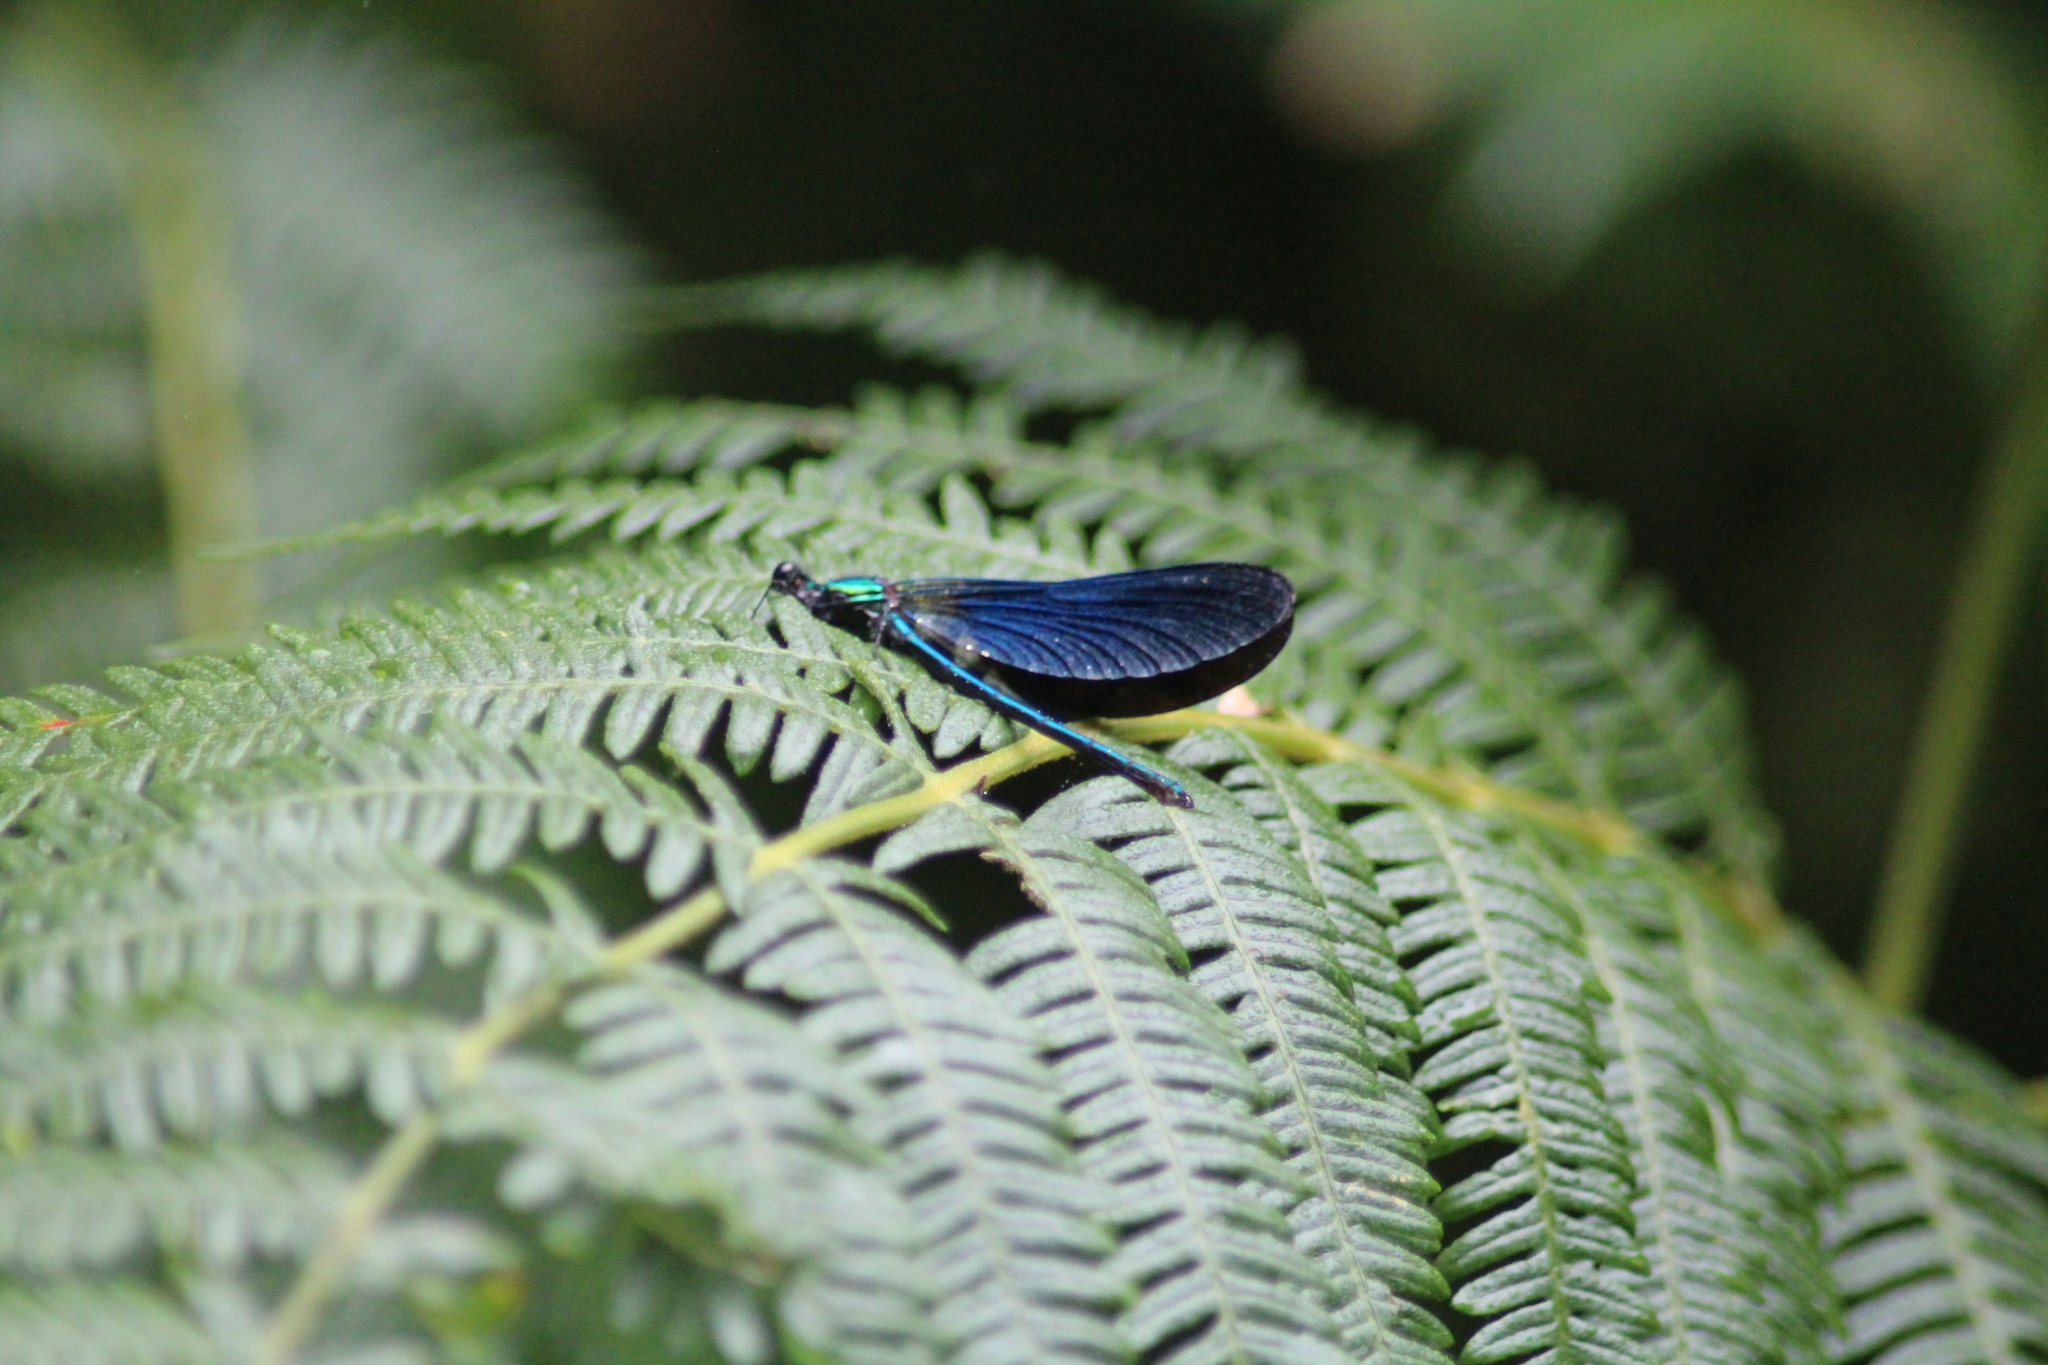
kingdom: Animalia
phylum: Arthropoda
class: Insecta
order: Odonata
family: Calopterygidae
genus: Calopteryx
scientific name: Calopteryx virgo
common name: Beautiful demoiselle
